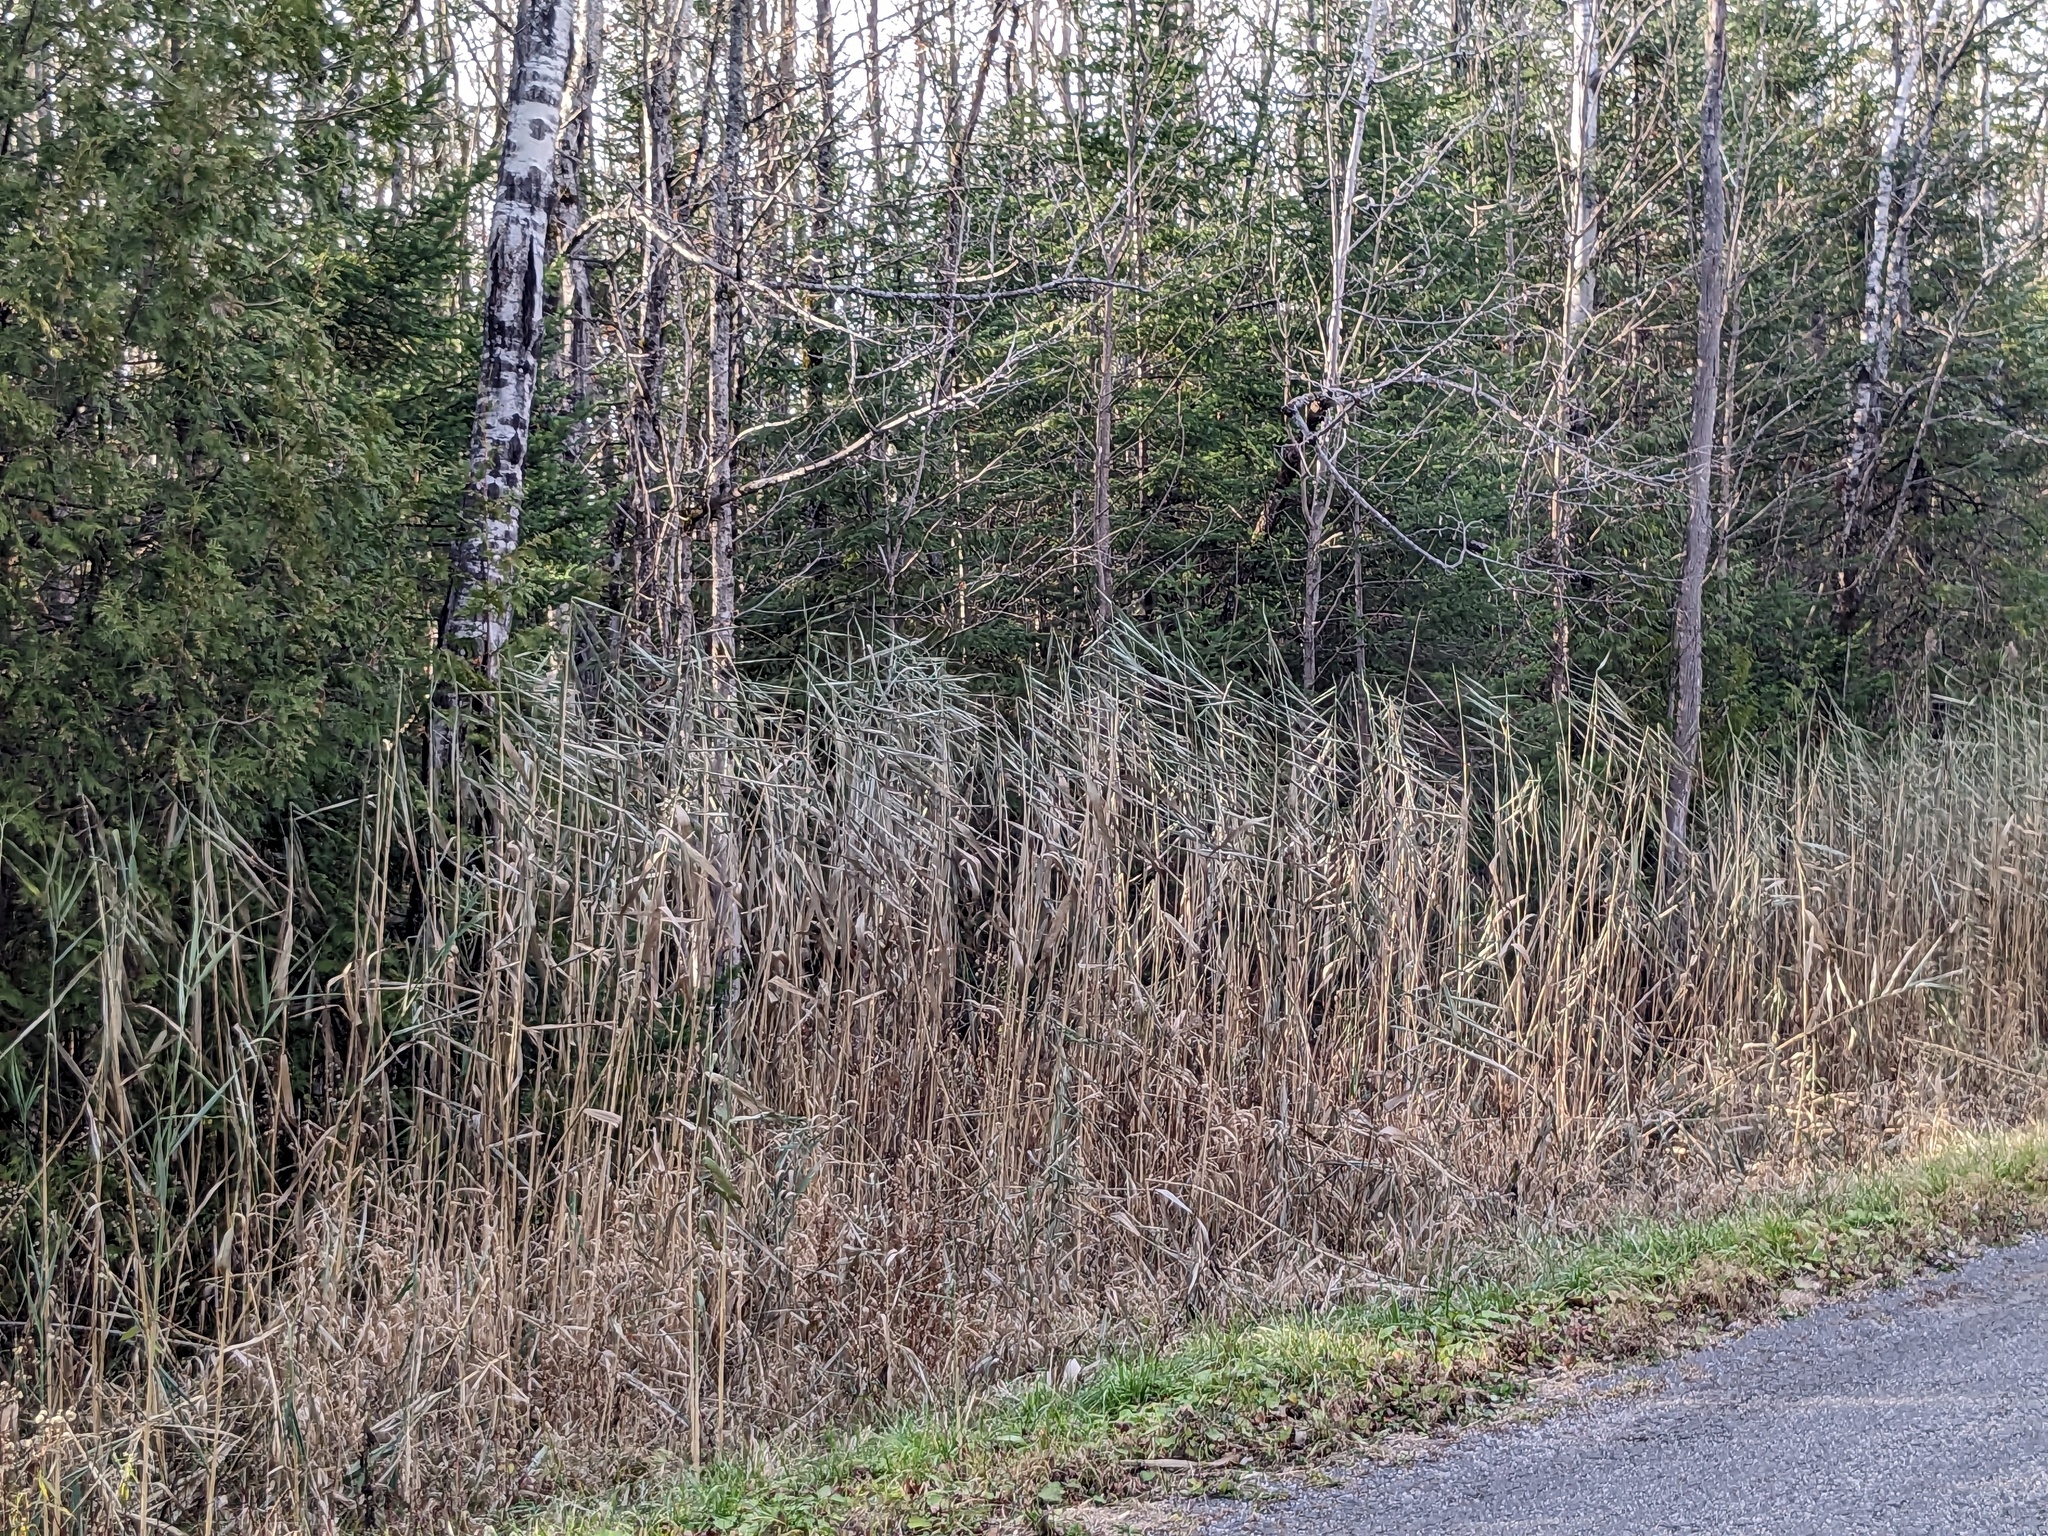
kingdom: Plantae
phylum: Tracheophyta
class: Liliopsida
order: Poales
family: Poaceae
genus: Phragmites
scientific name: Phragmites australis
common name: Common reed
